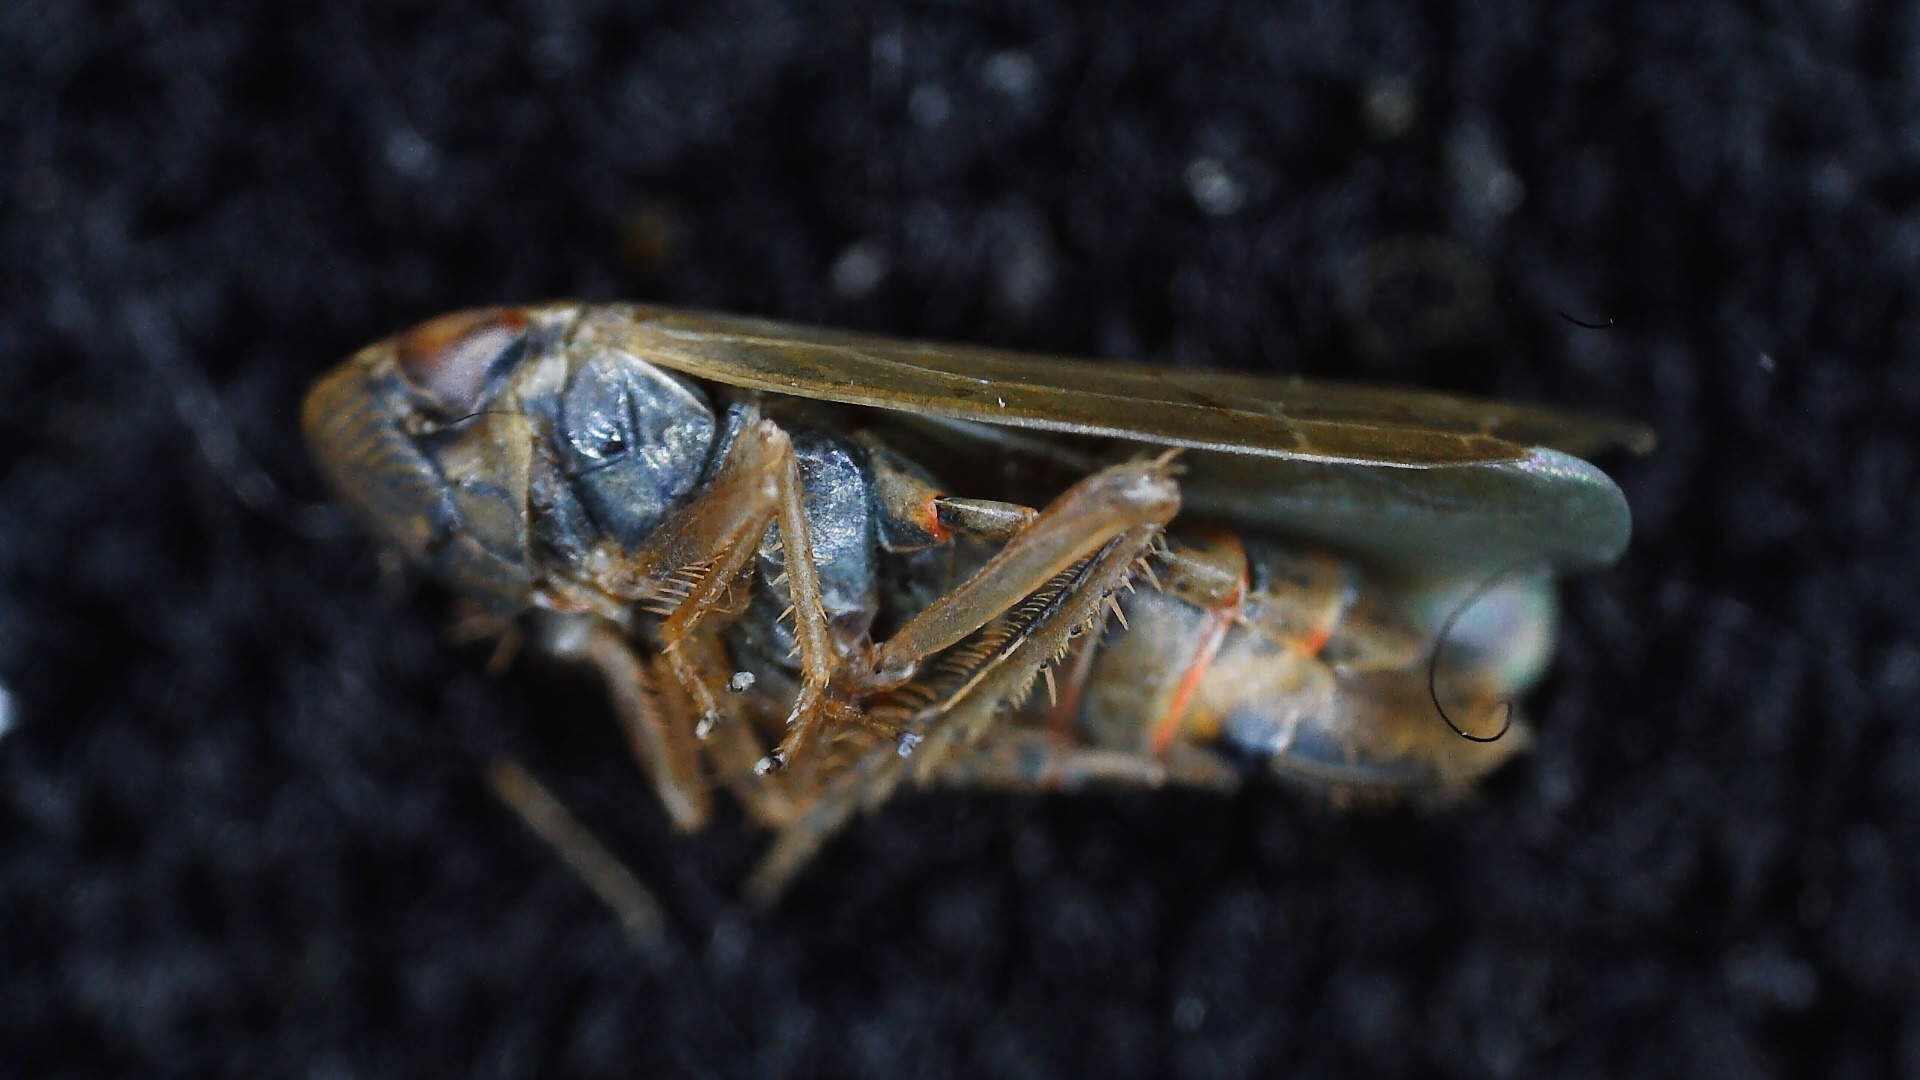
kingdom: Animalia
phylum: Arthropoda
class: Insecta
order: Hemiptera
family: Cicadellidae
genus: Speudotettix
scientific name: Speudotettix subfusculus
